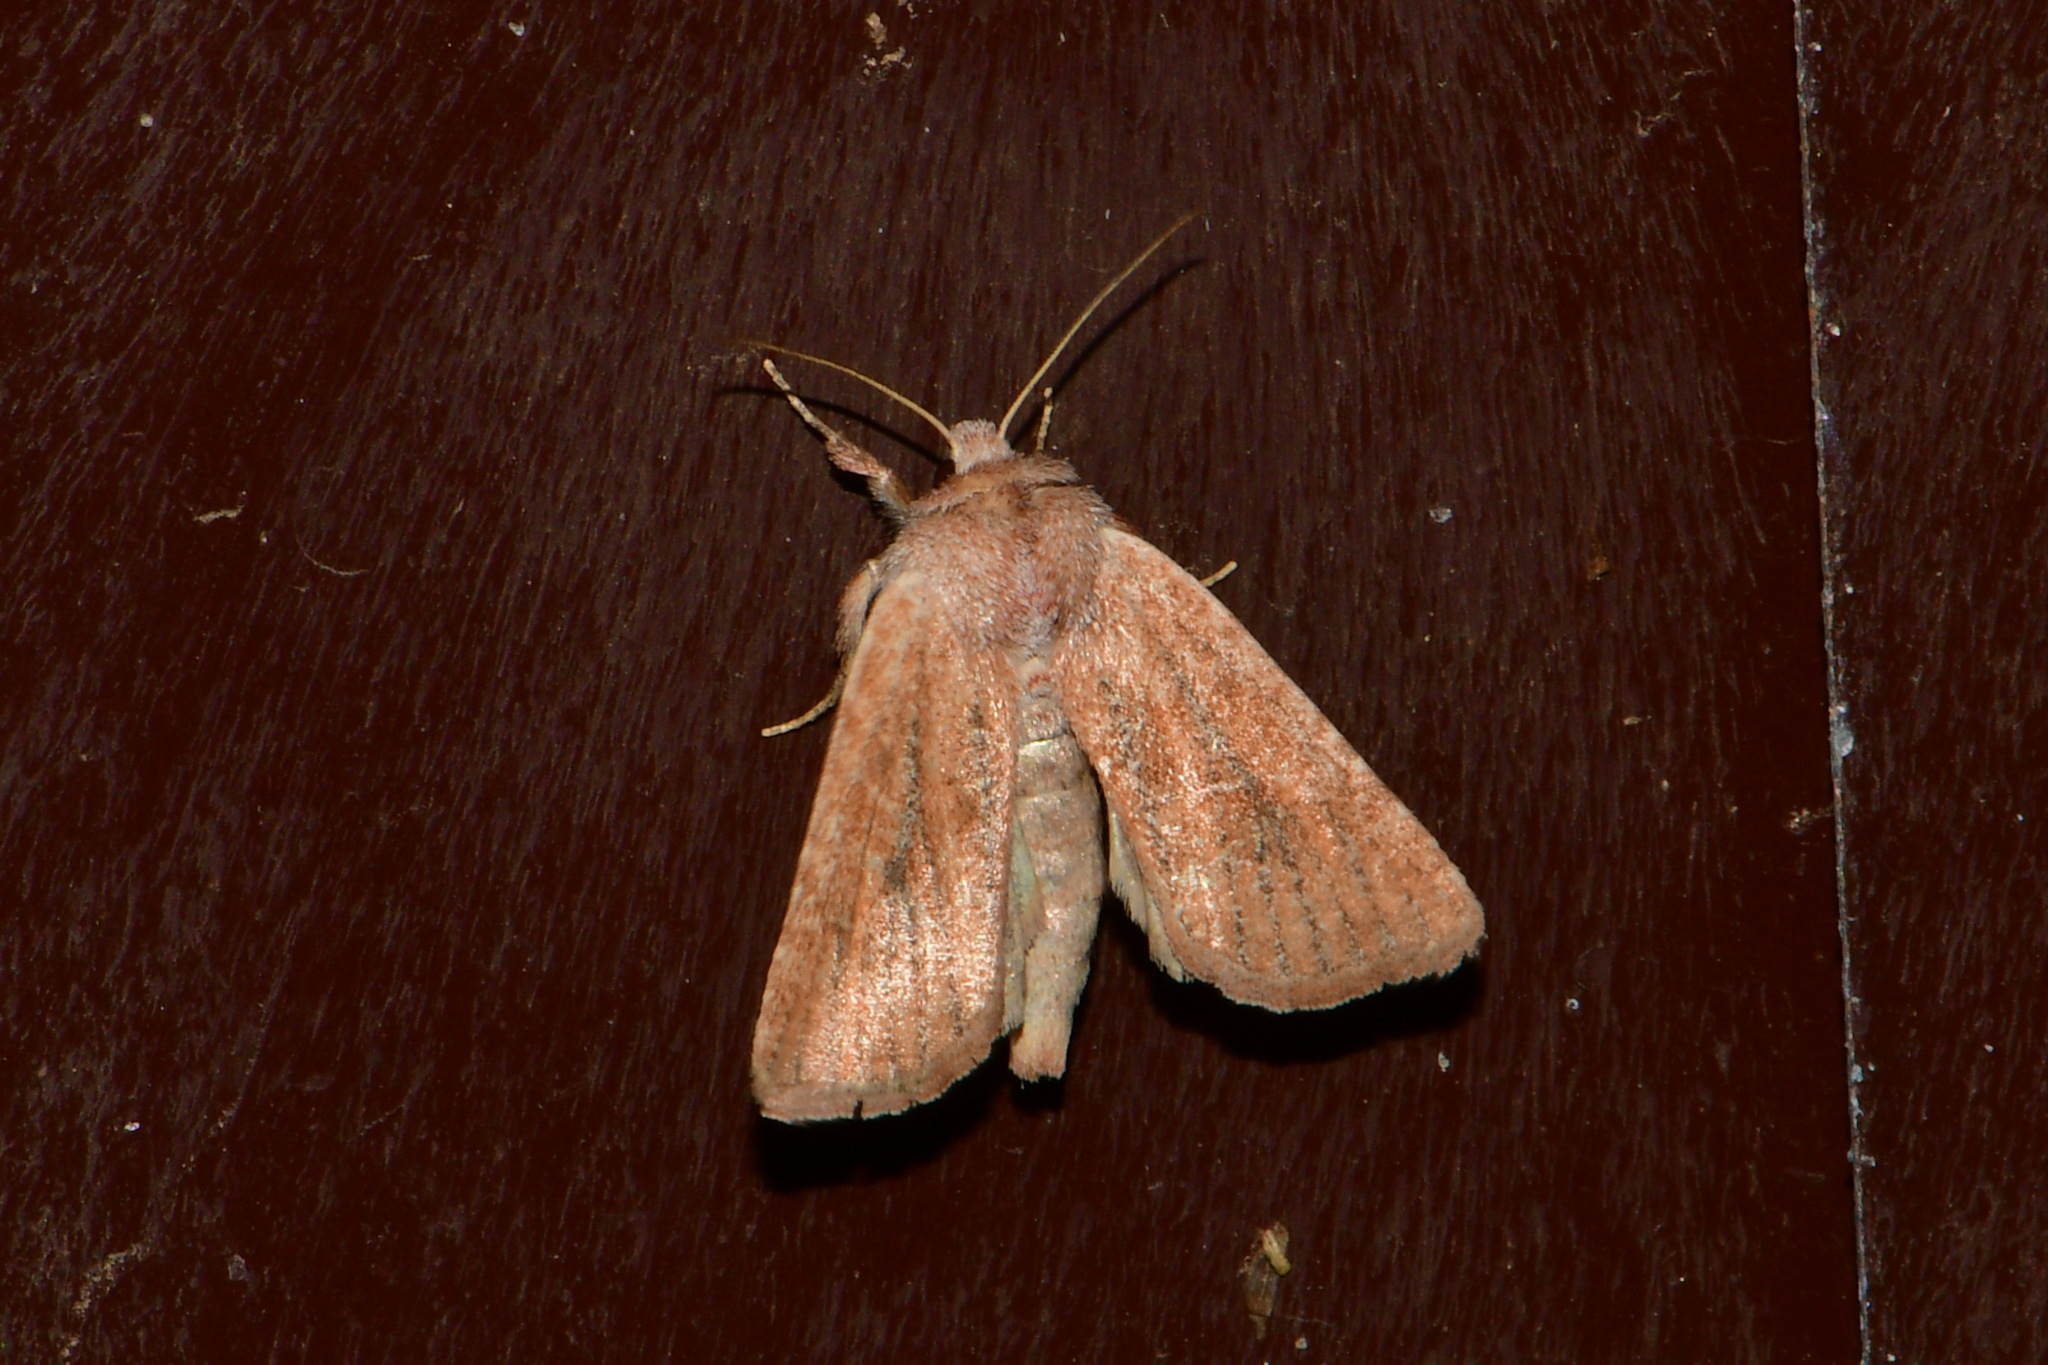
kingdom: Animalia
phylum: Arthropoda
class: Insecta
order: Lepidoptera
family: Noctuidae
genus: Photedes
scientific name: Photedes fluxa
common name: Mere wainscot
